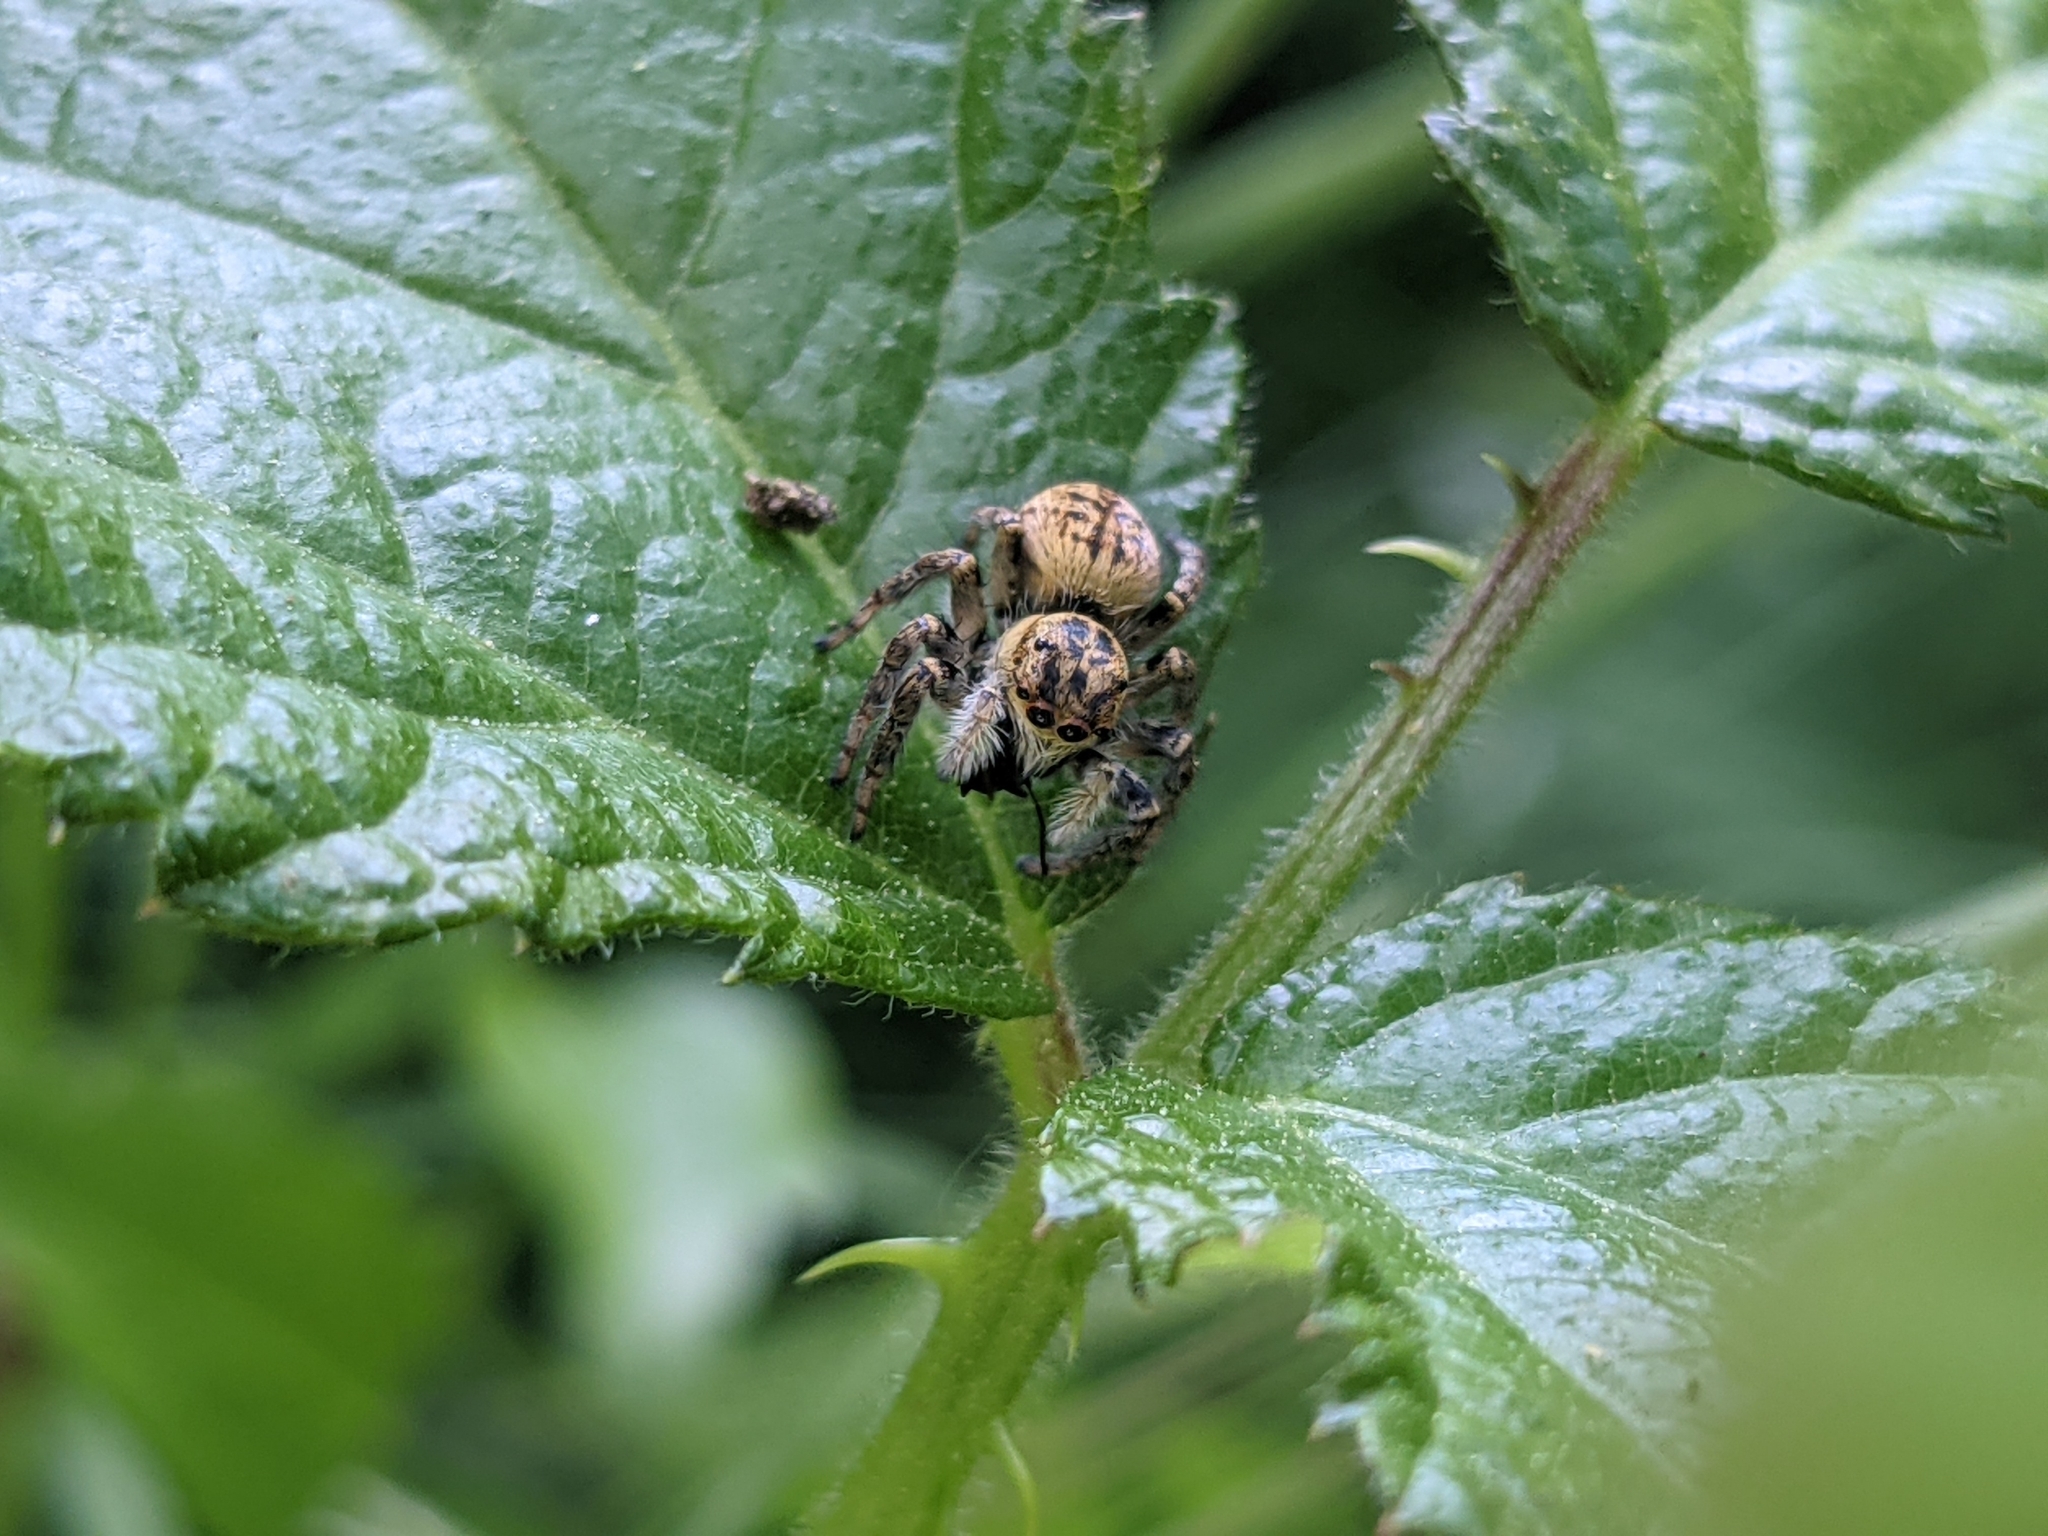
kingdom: Animalia
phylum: Arthropoda
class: Arachnida
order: Araneae
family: Salticidae
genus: Carrhotus
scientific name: Carrhotus xanthogramma
